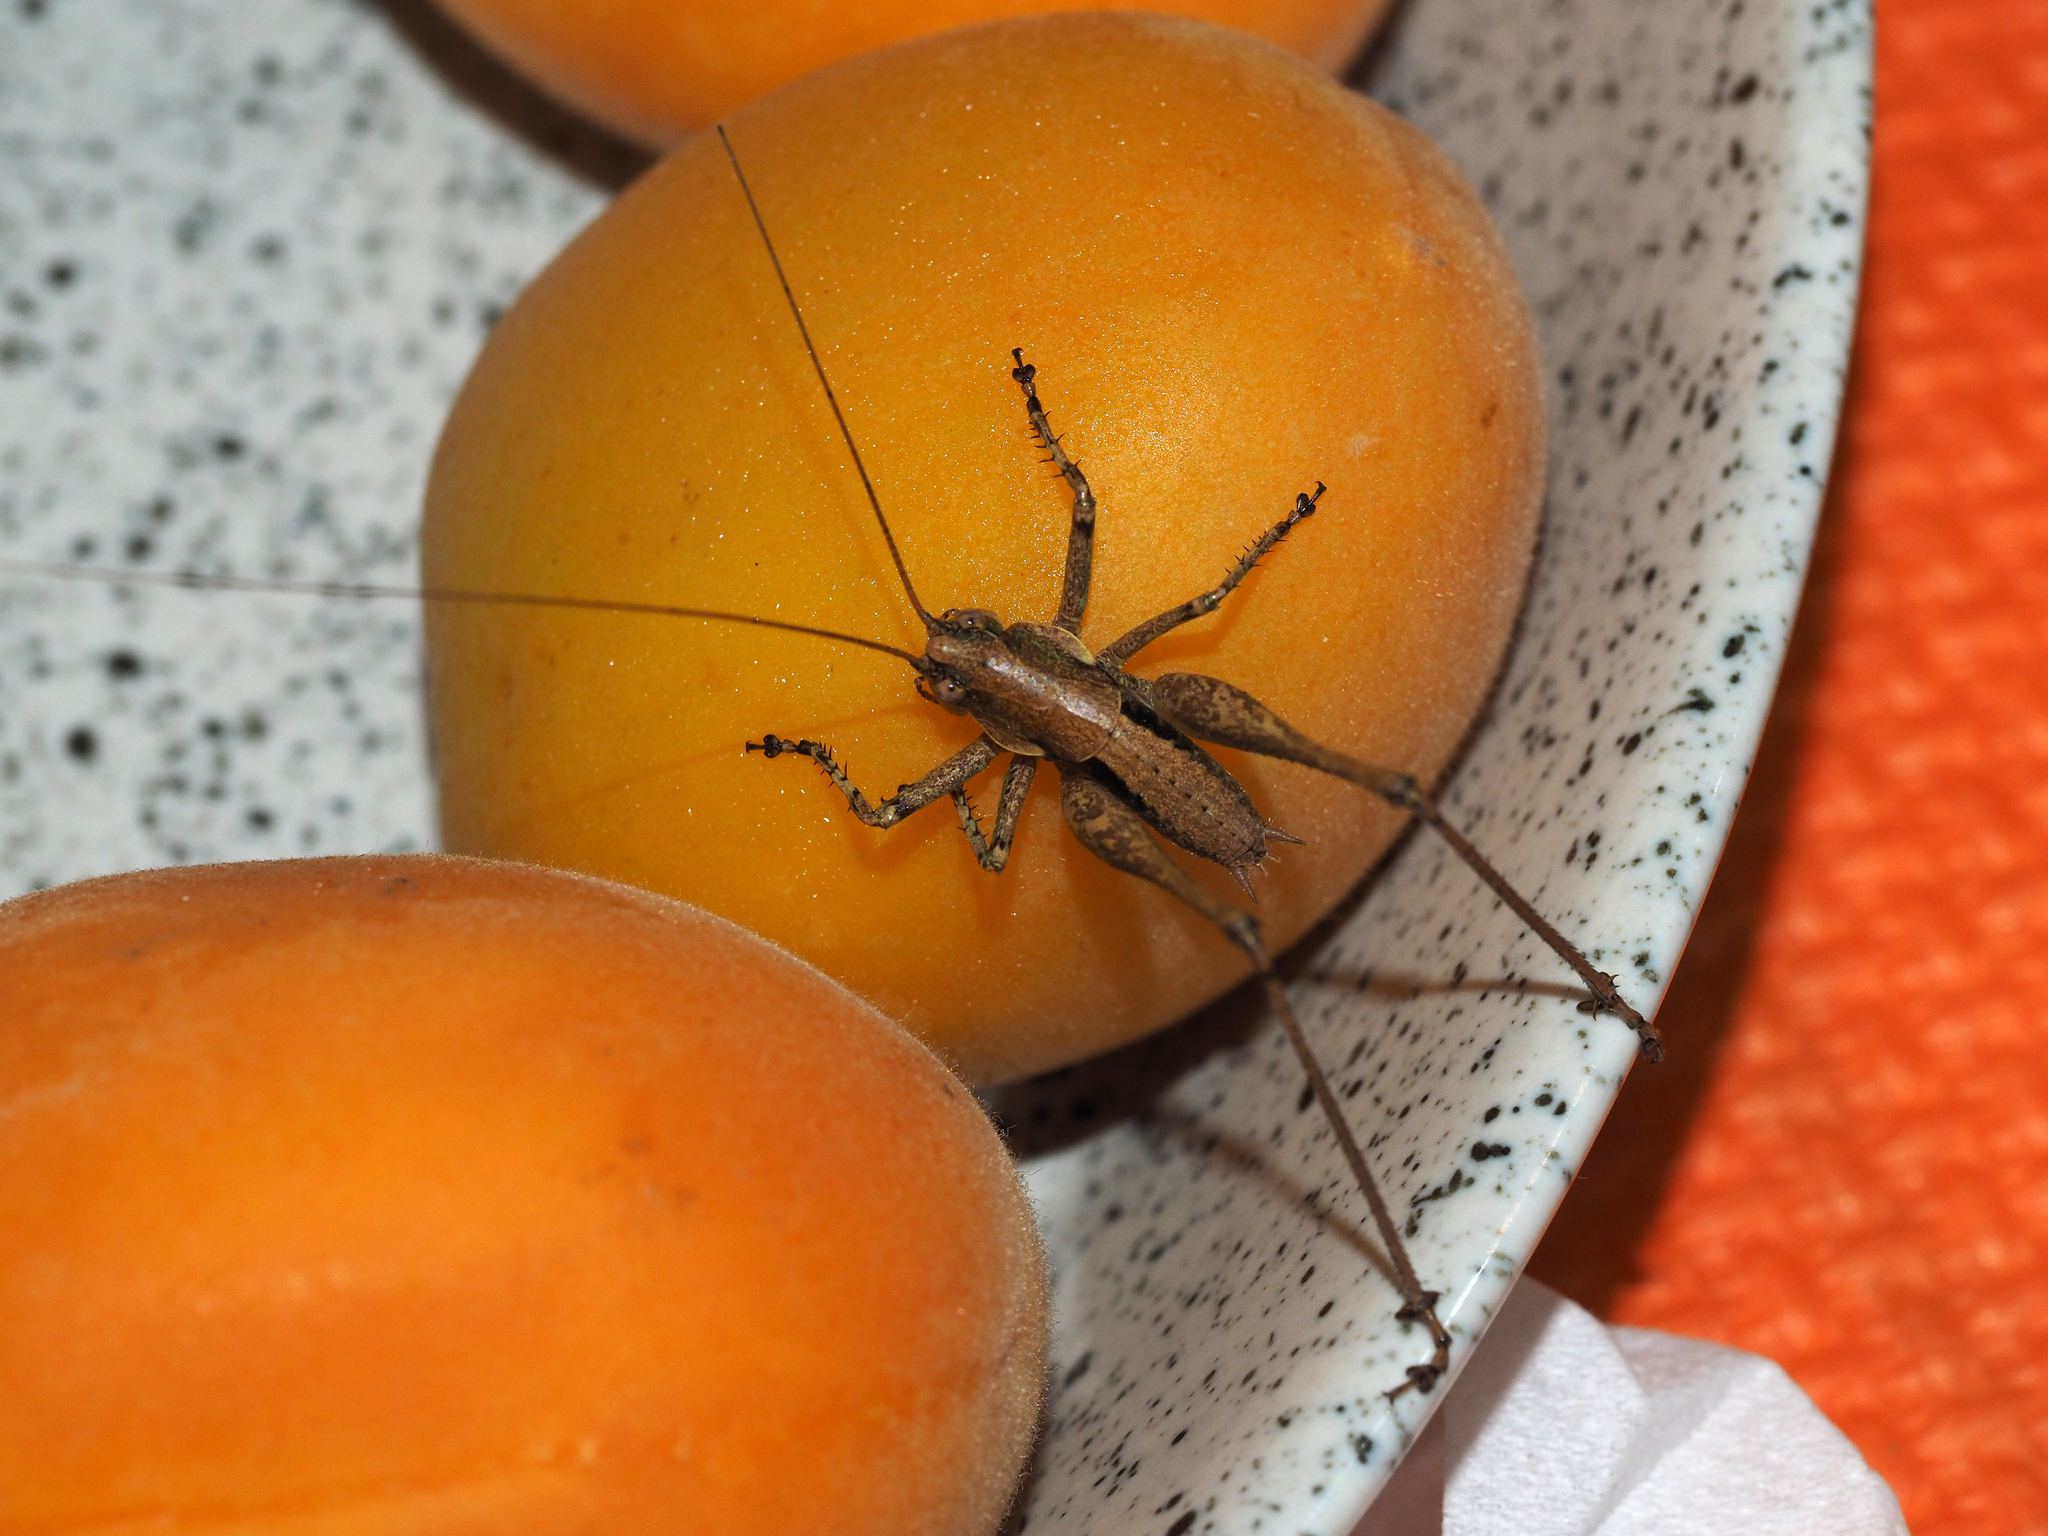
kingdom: Animalia
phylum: Arthropoda
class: Insecta
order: Orthoptera
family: Tettigoniidae
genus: Rhacocleis
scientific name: Rhacocleis annulata
